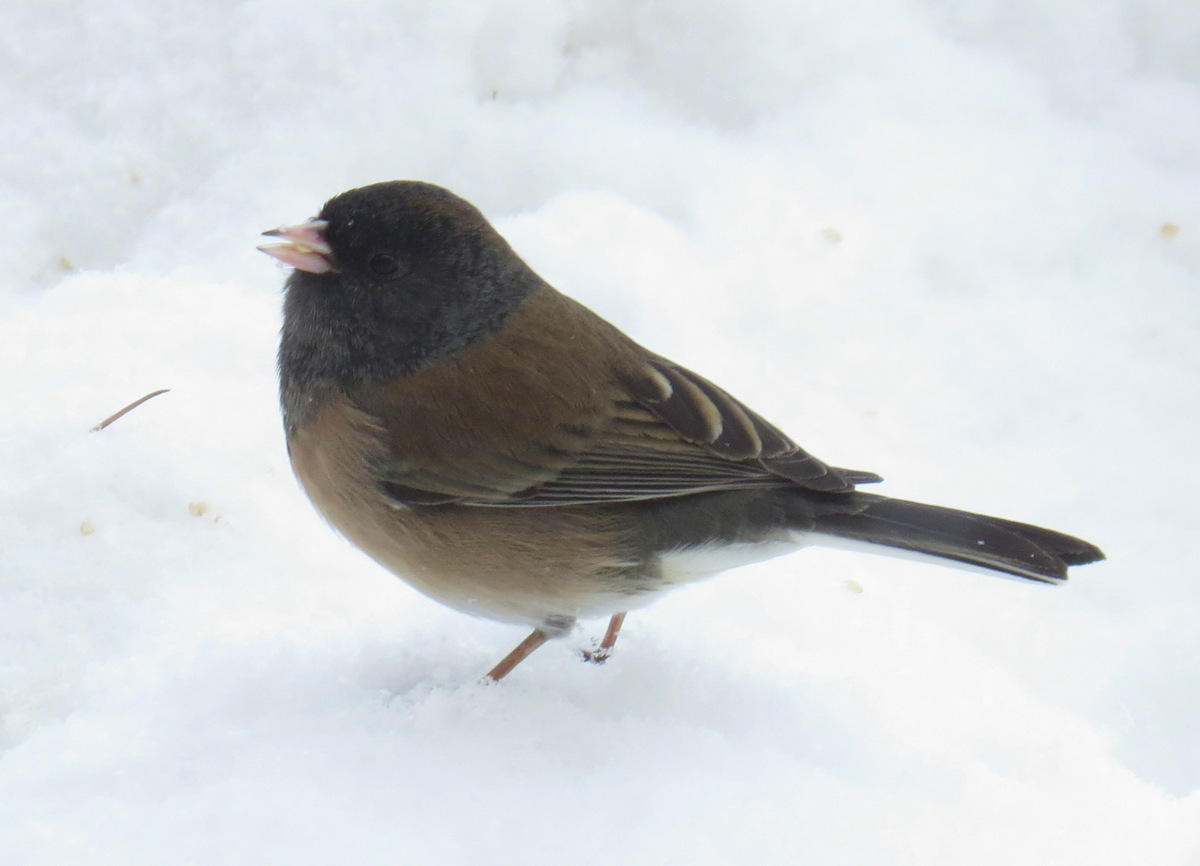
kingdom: Animalia
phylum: Chordata
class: Aves
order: Passeriformes
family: Passerellidae
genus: Junco
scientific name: Junco hyemalis
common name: Dark-eyed junco
